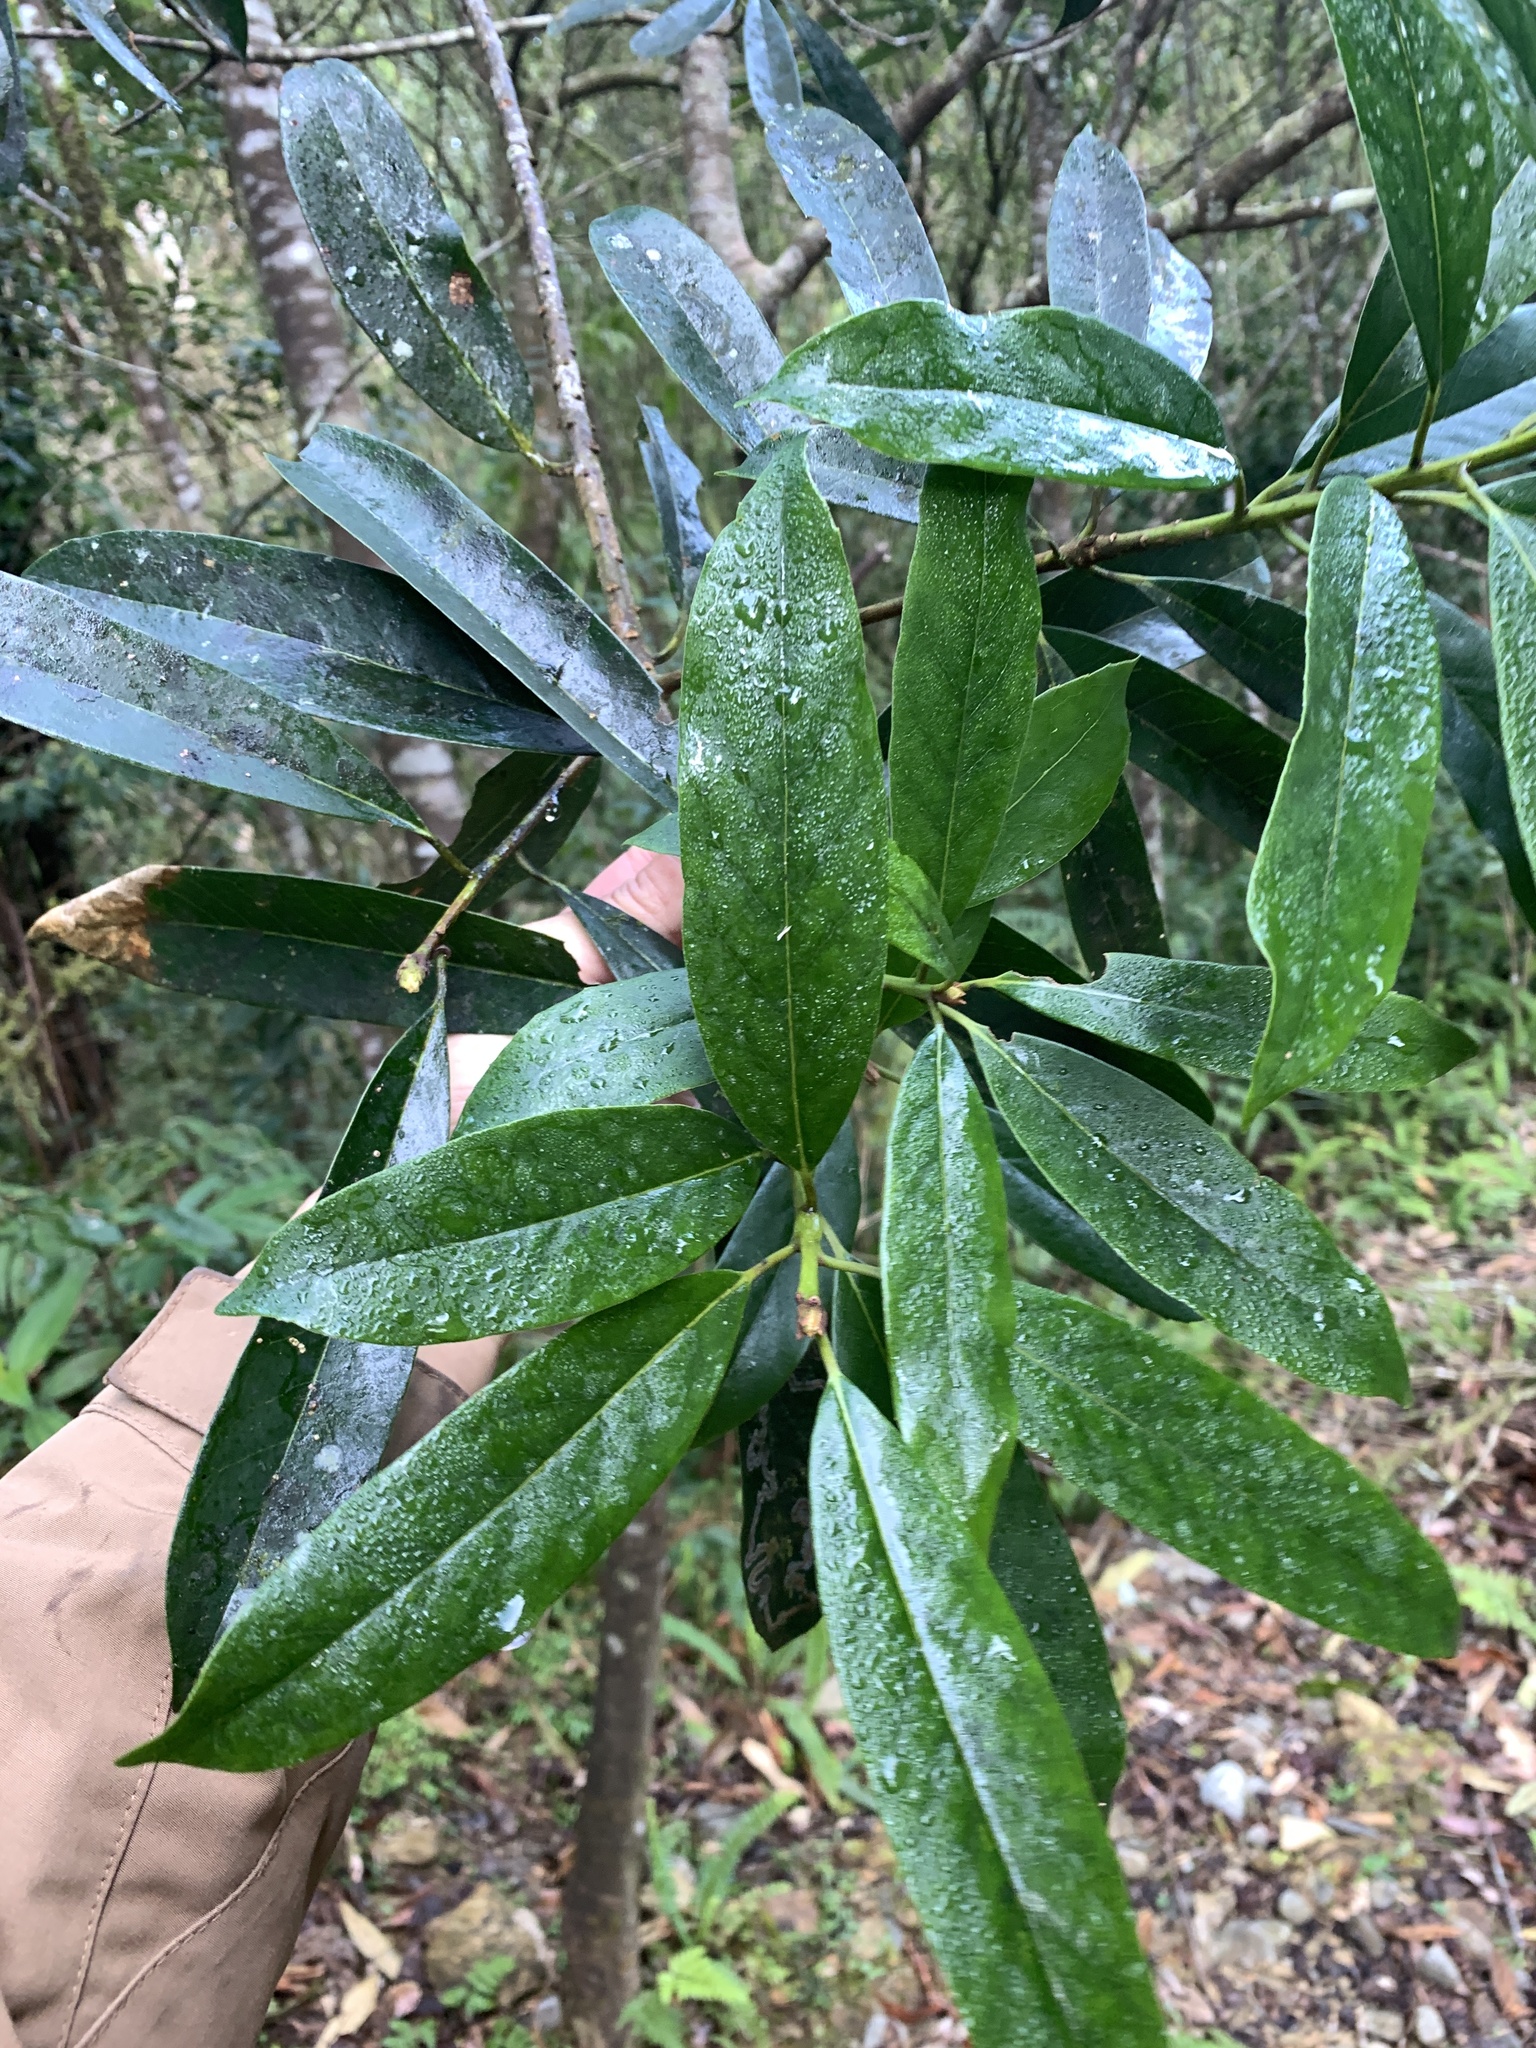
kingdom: Plantae
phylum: Tracheophyta
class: Magnoliopsida
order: Ericales
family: Symplocaceae
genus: Symplocos
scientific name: Symplocos glauca
